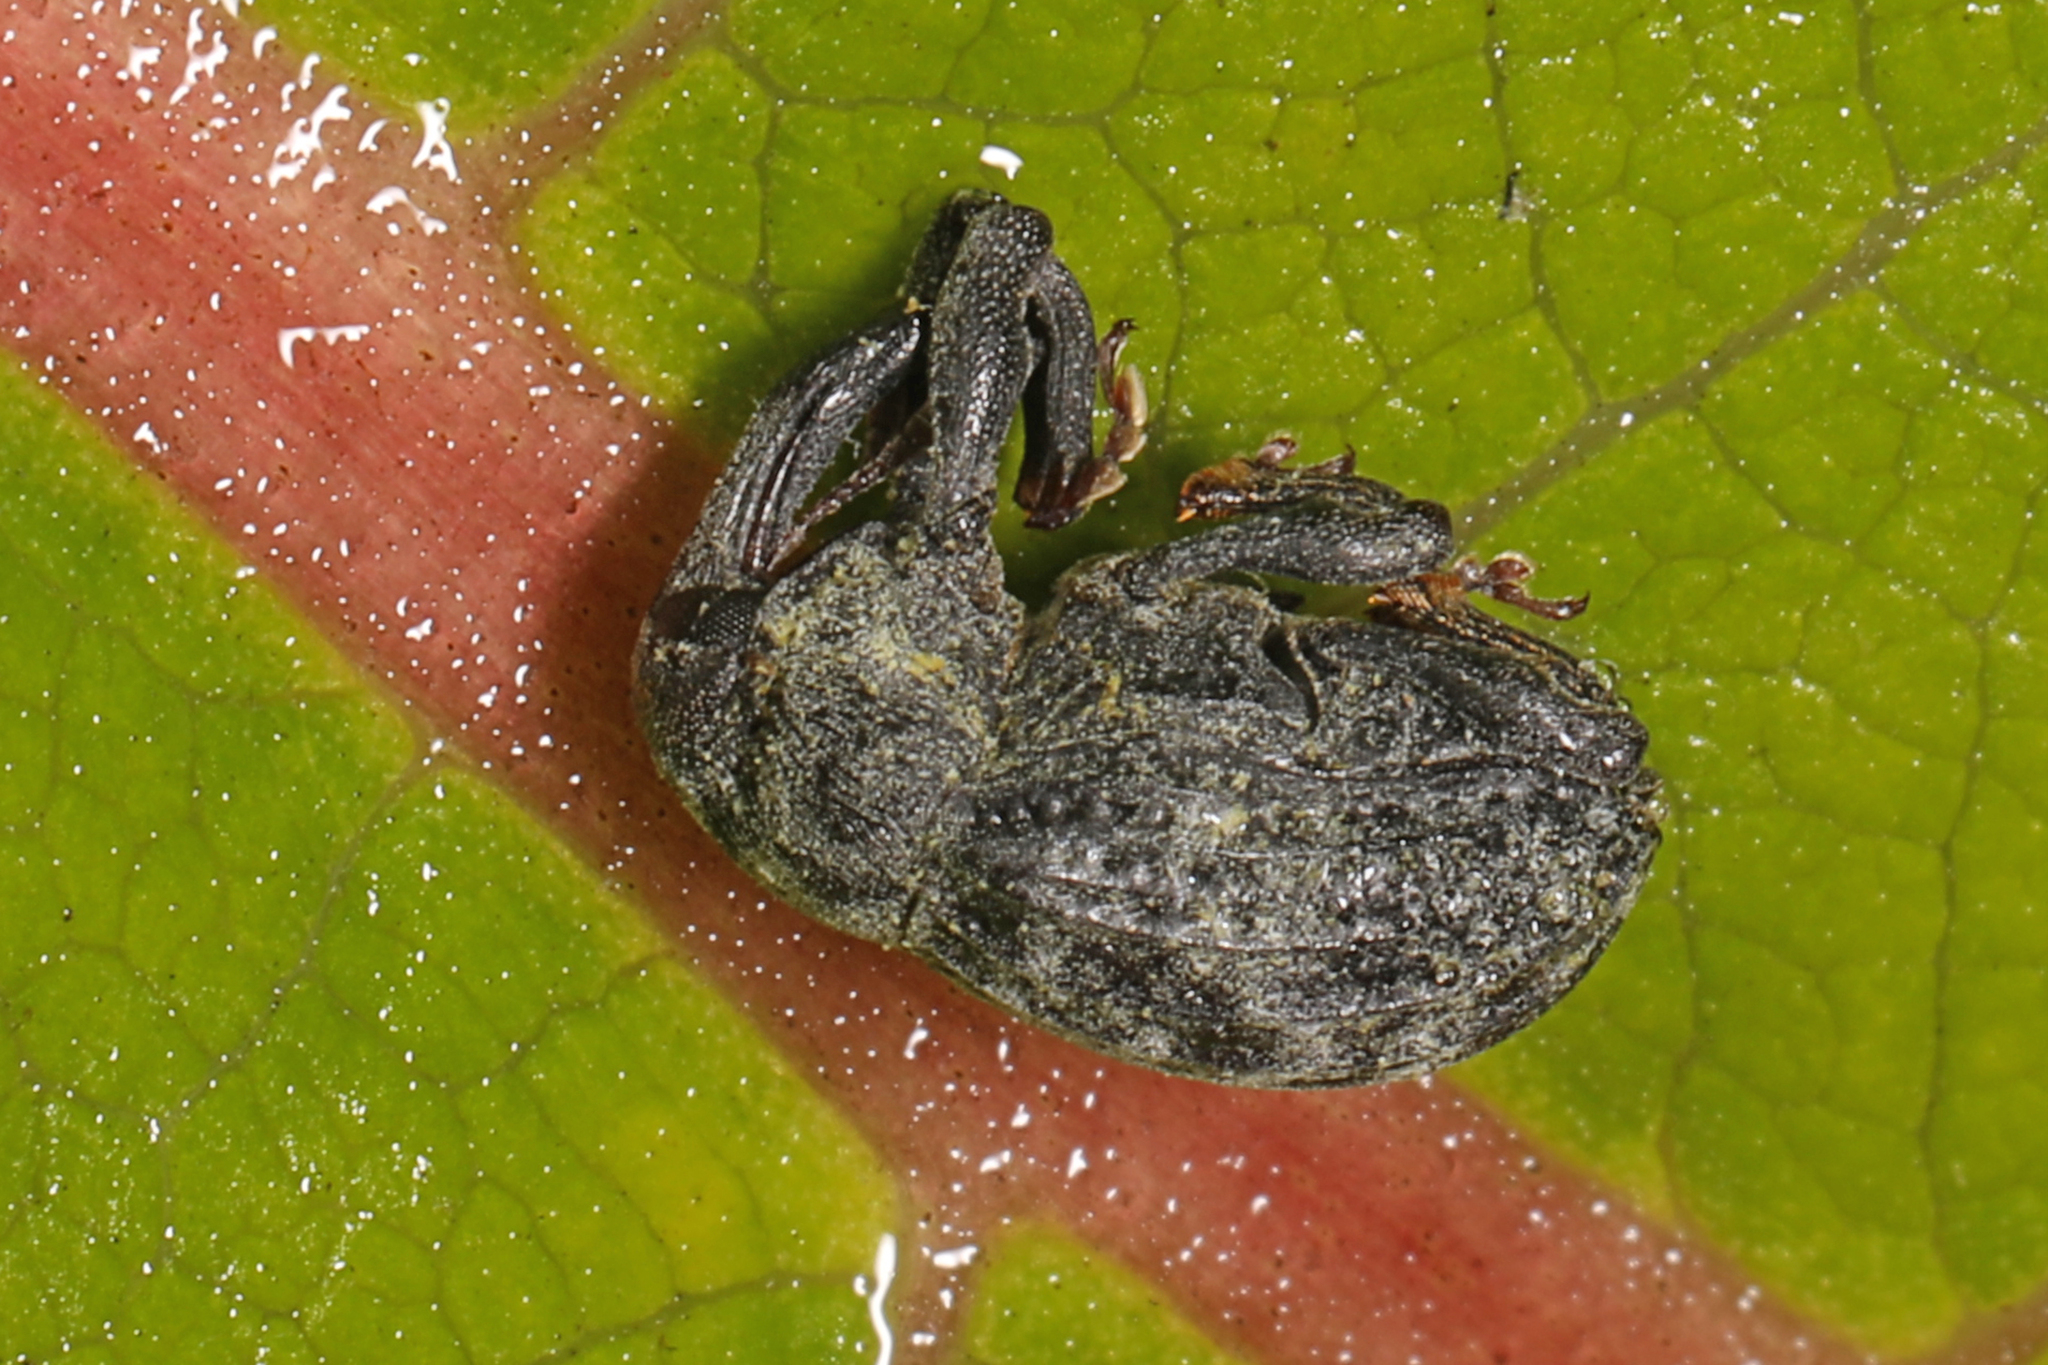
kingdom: Animalia
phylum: Arthropoda
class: Insecta
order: Coleoptera
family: Curculionidae
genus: Rhyssomatus
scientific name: Rhyssomatus lineaticollis
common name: Milkweed stem weevil
